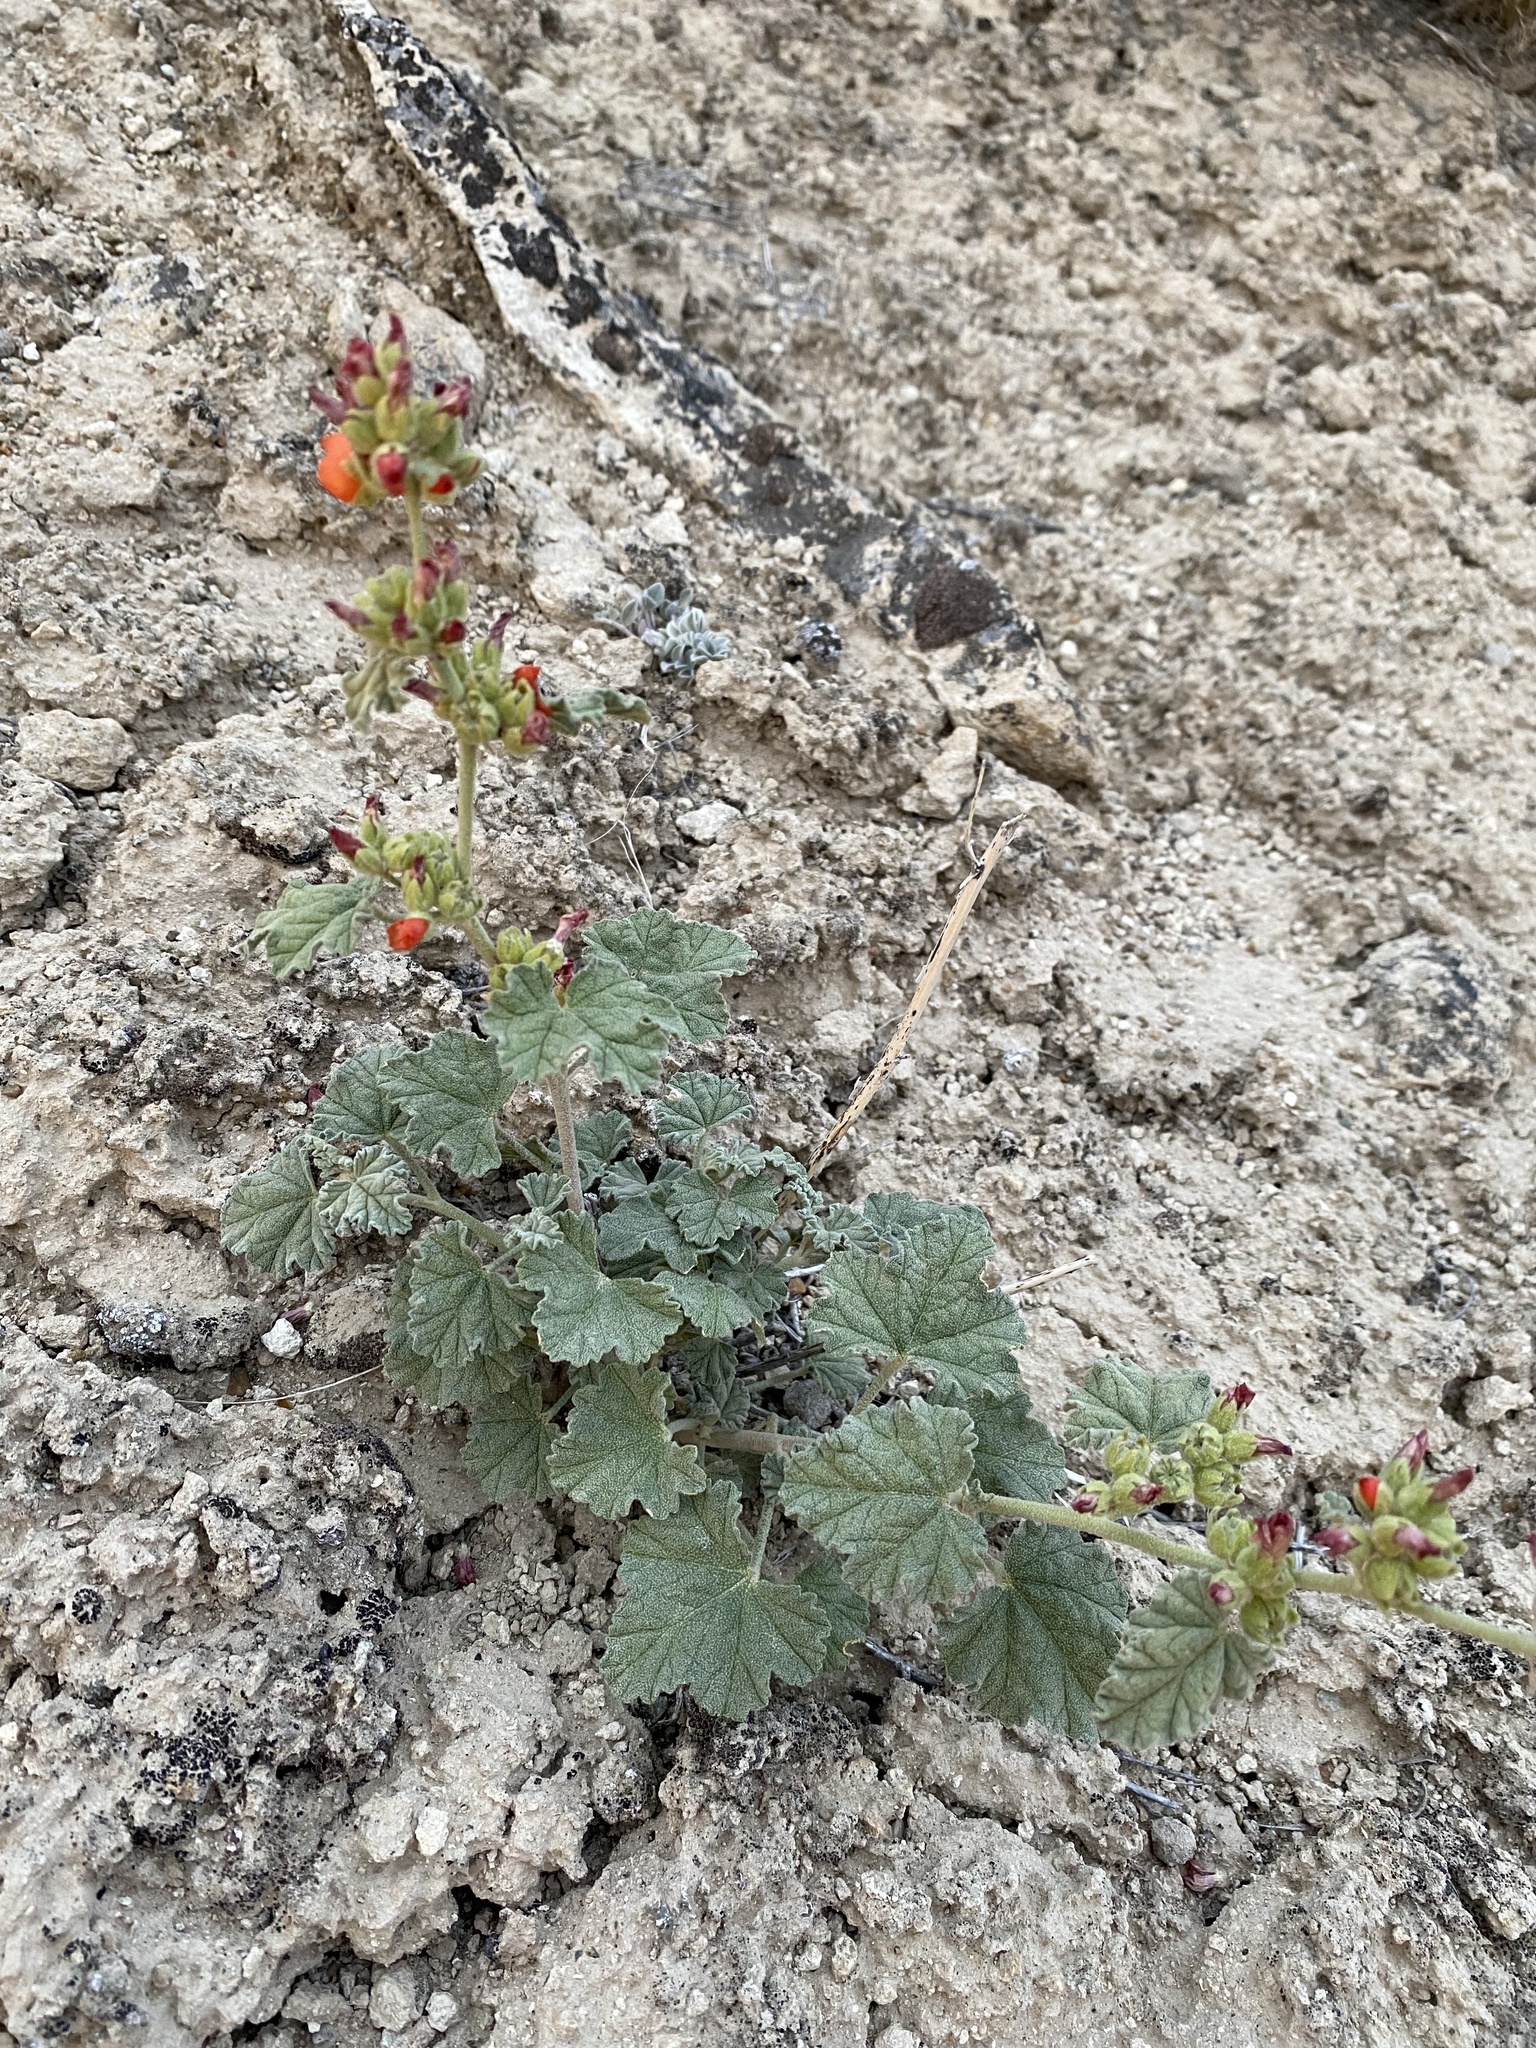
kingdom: Plantae
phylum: Tracheophyta
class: Magnoliopsida
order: Malvales
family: Malvaceae
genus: Sphaeralcea
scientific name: Sphaeralcea ambigua
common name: Apricot globe-mallow
